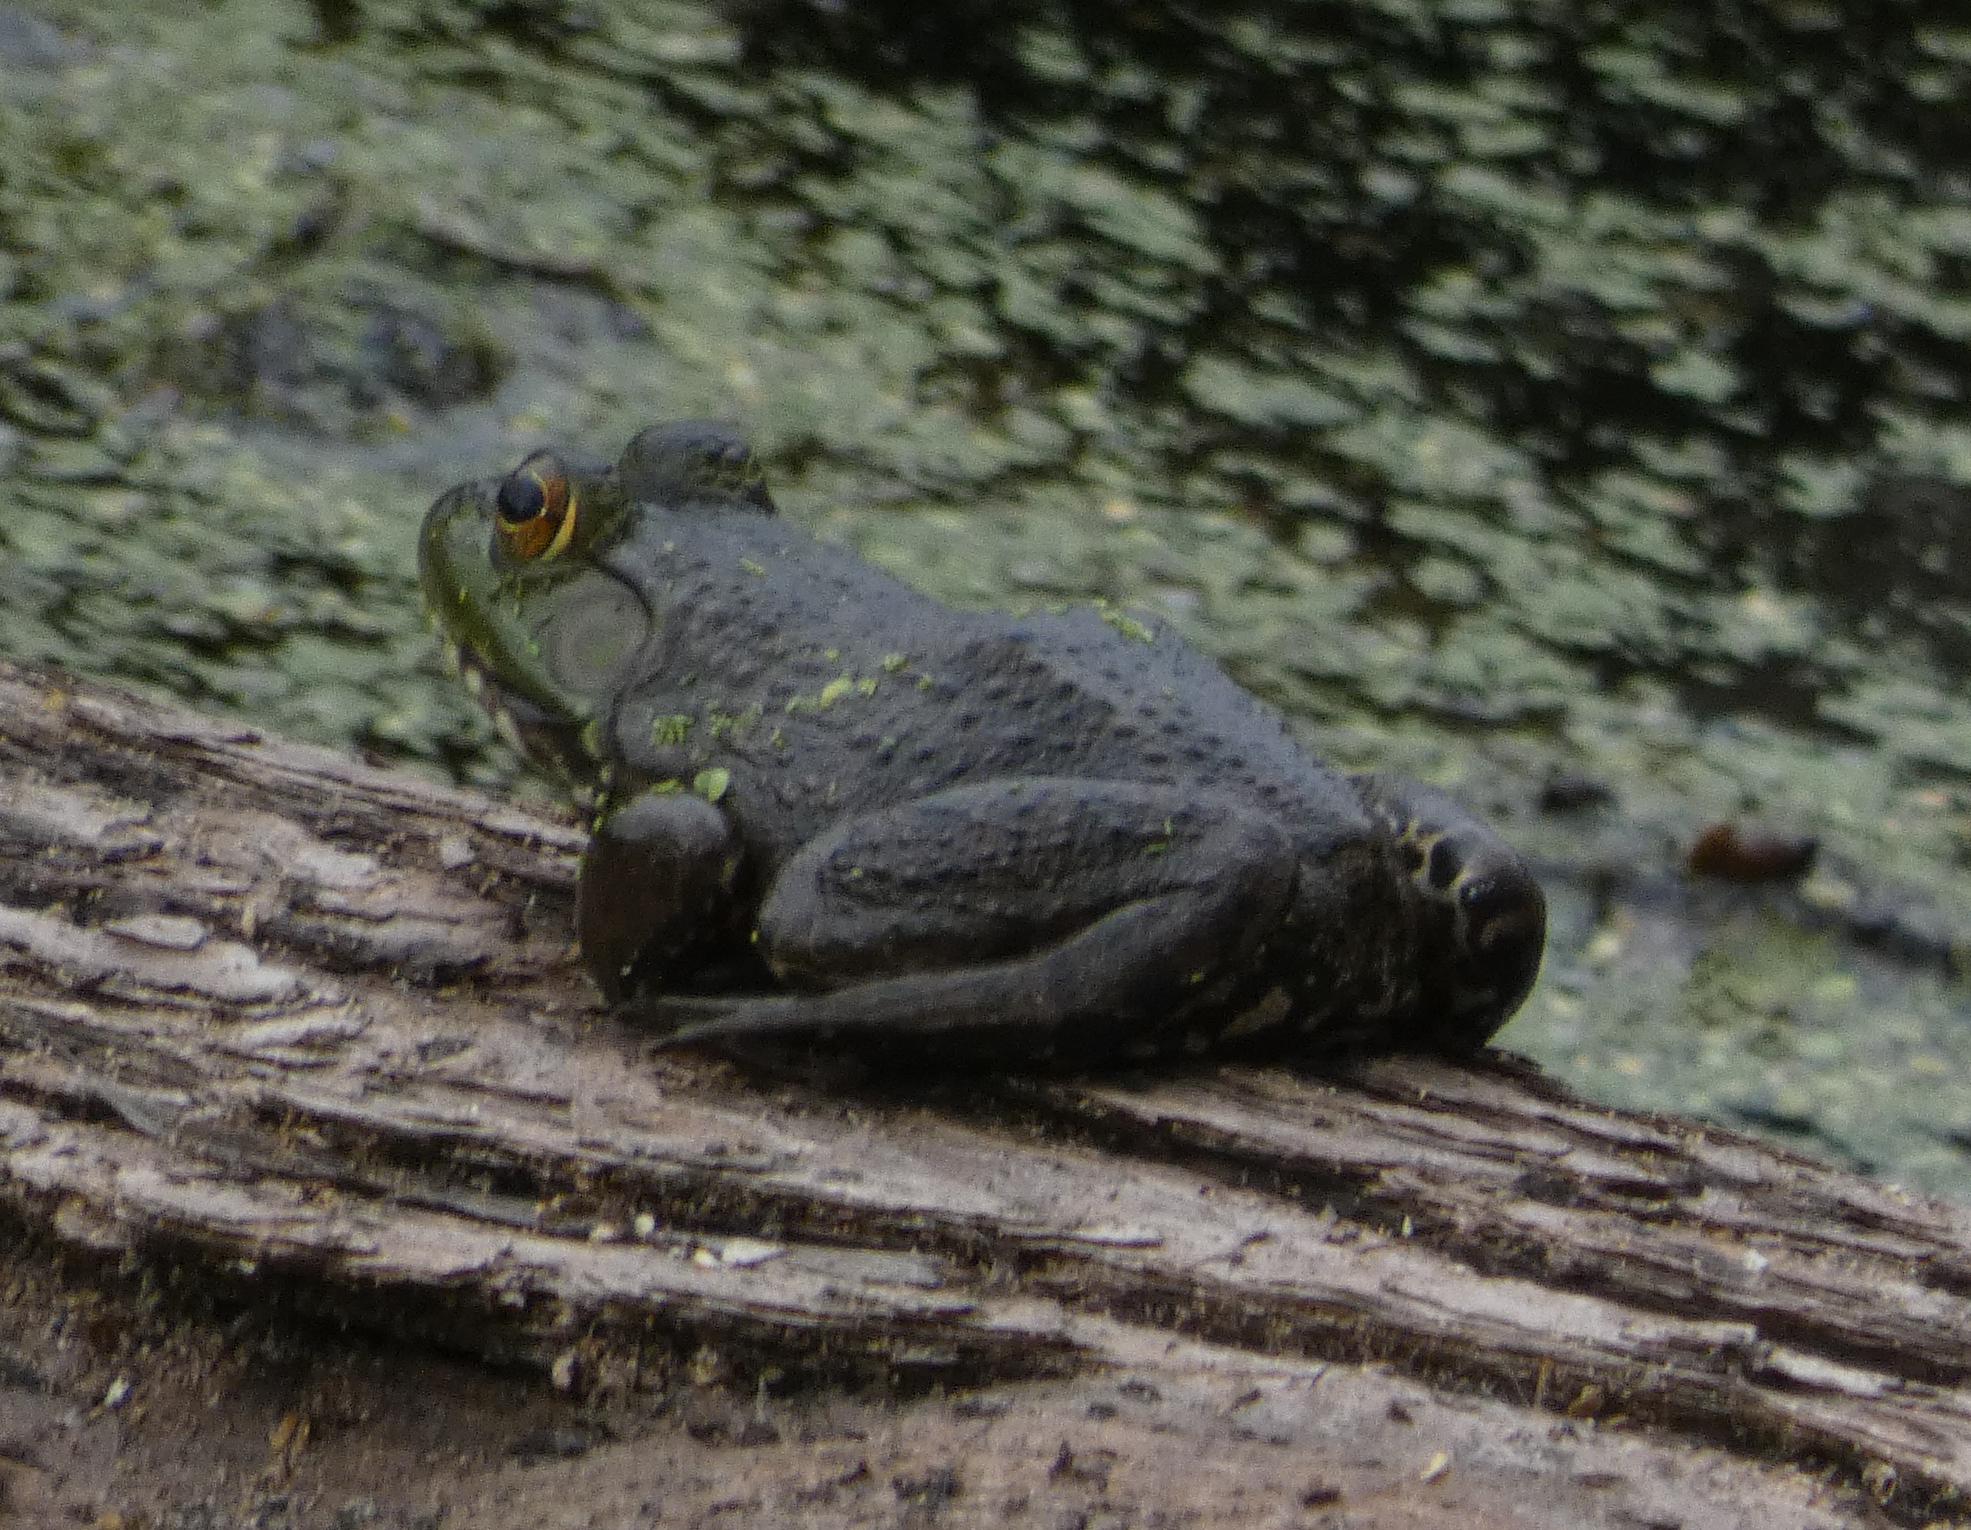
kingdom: Animalia
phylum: Chordata
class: Amphibia
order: Anura
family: Ranidae
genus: Lithobates
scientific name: Lithobates catesbeianus
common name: American bullfrog
